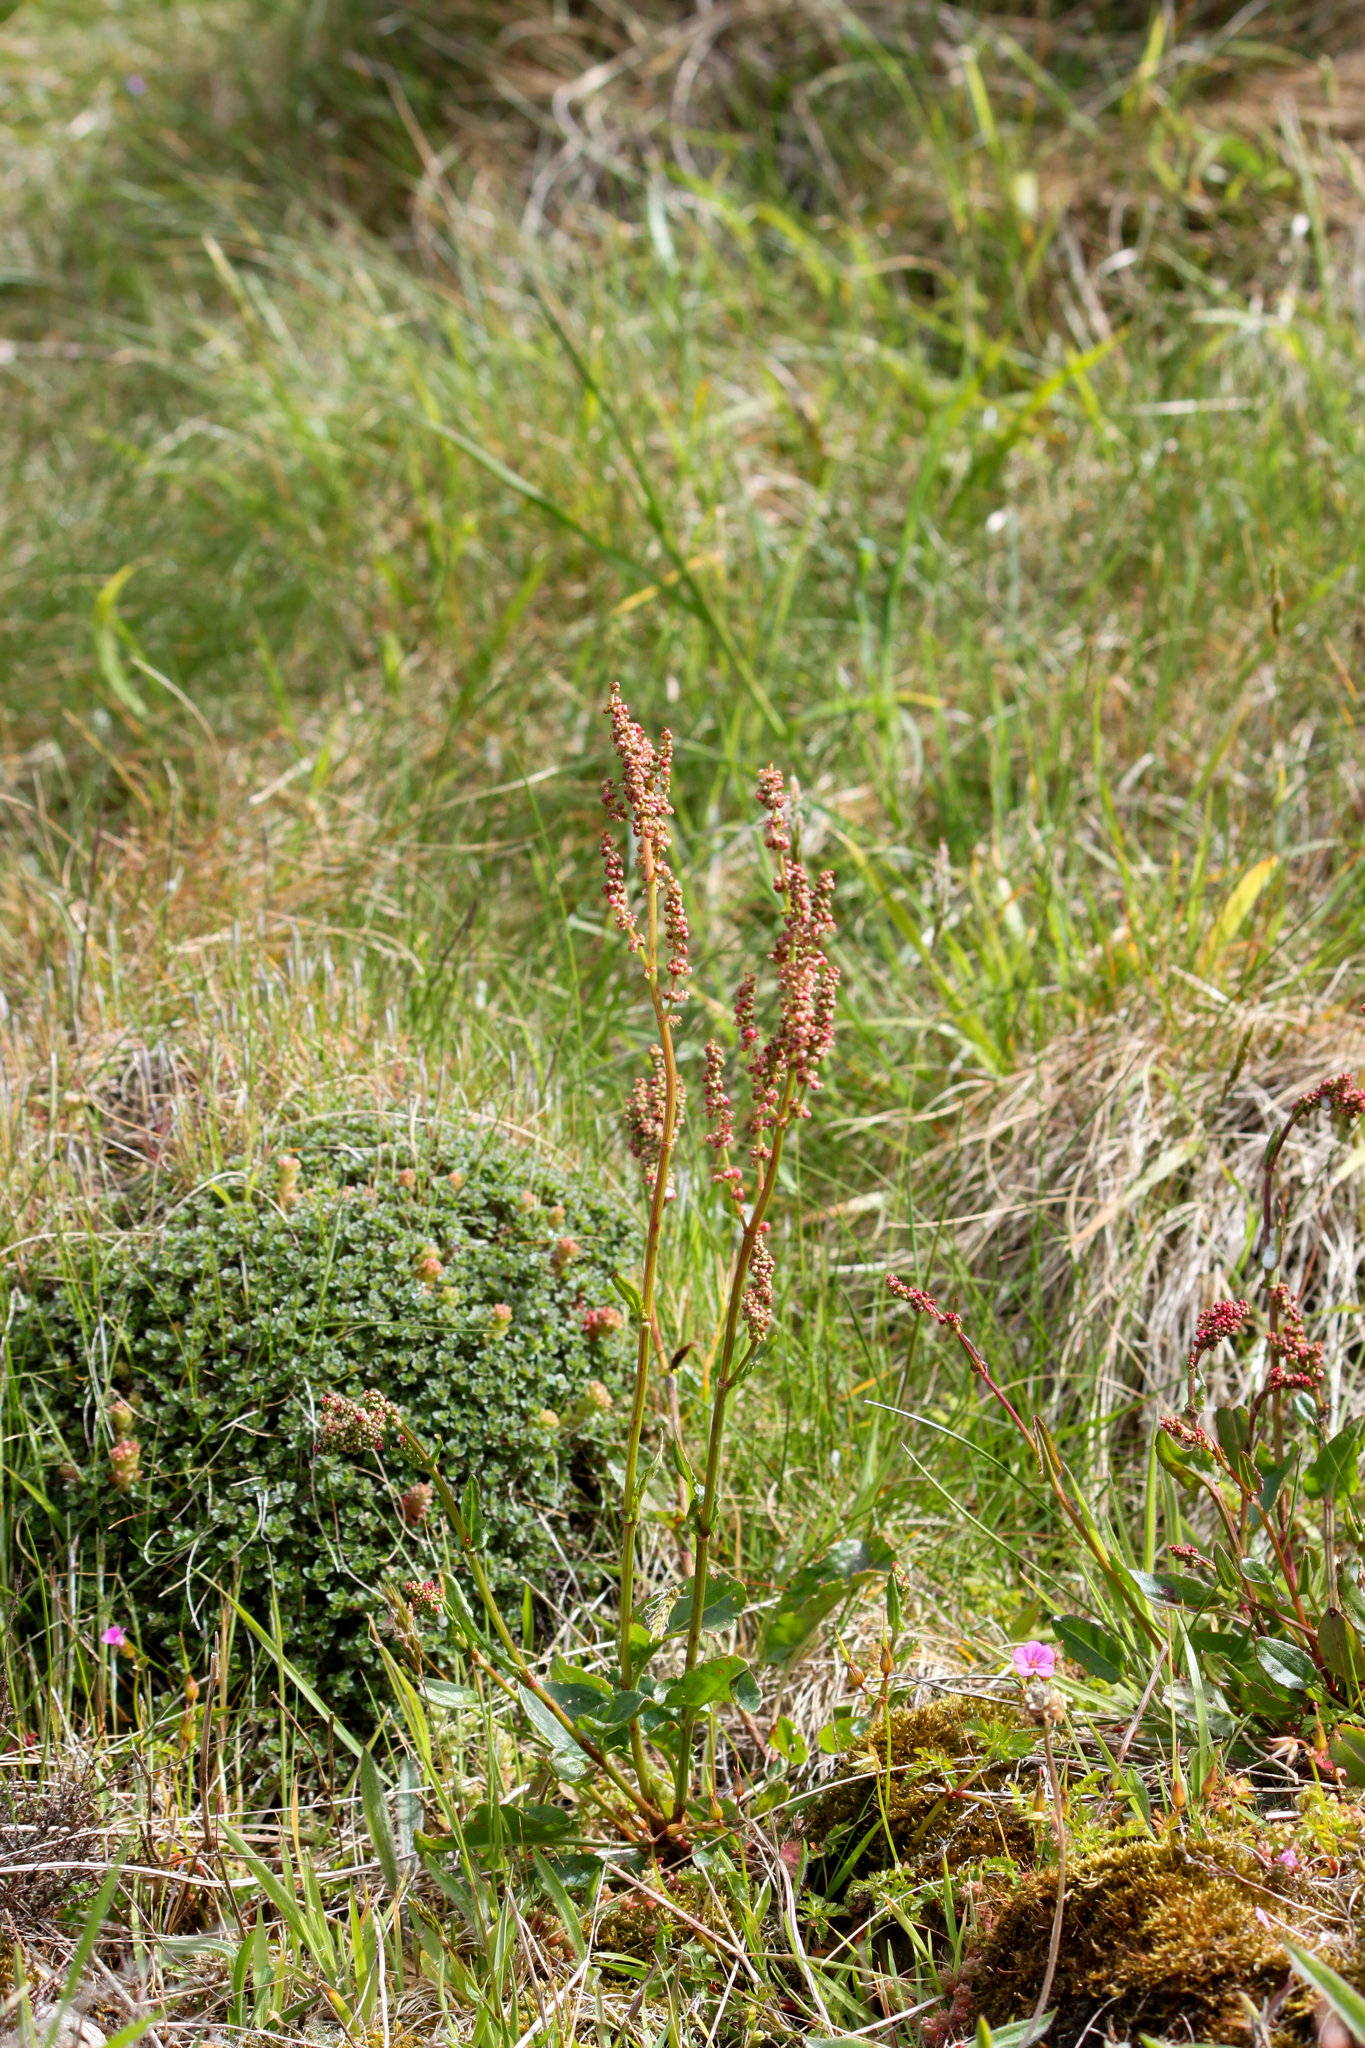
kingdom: Plantae
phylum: Tracheophyta
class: Magnoliopsida
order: Caryophyllales
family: Polygonaceae
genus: Rumex
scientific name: Rumex acetosa
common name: Garden sorrel
